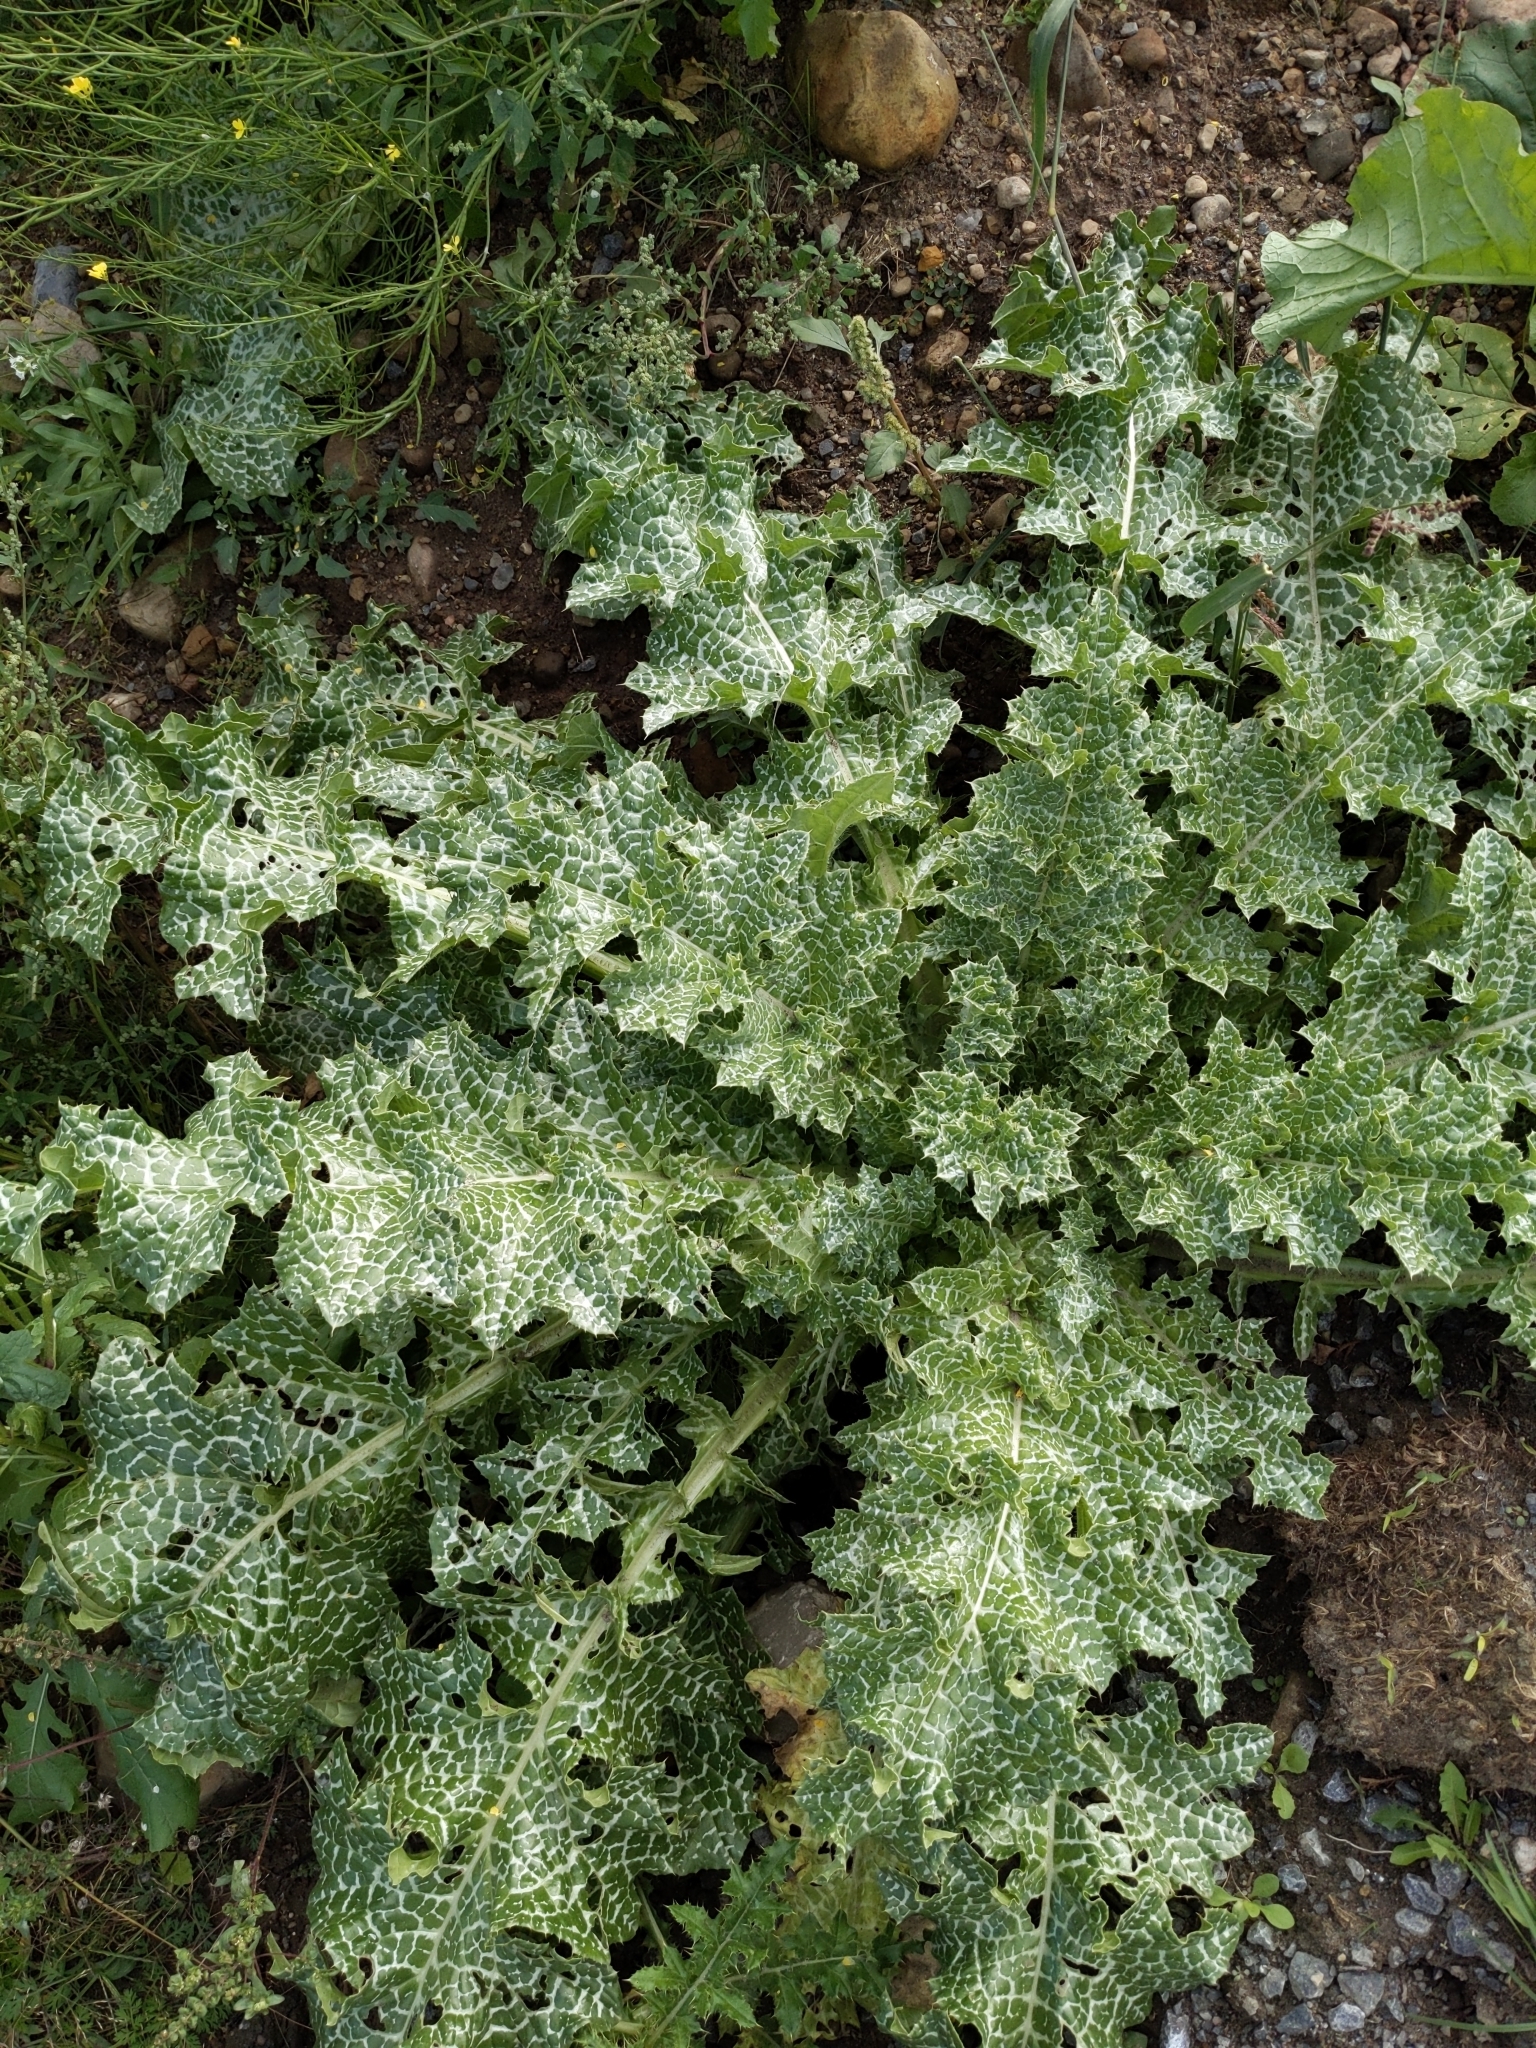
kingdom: Plantae
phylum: Tracheophyta
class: Magnoliopsida
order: Asterales
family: Asteraceae
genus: Silybum
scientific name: Silybum marianum
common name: Milk thistle
